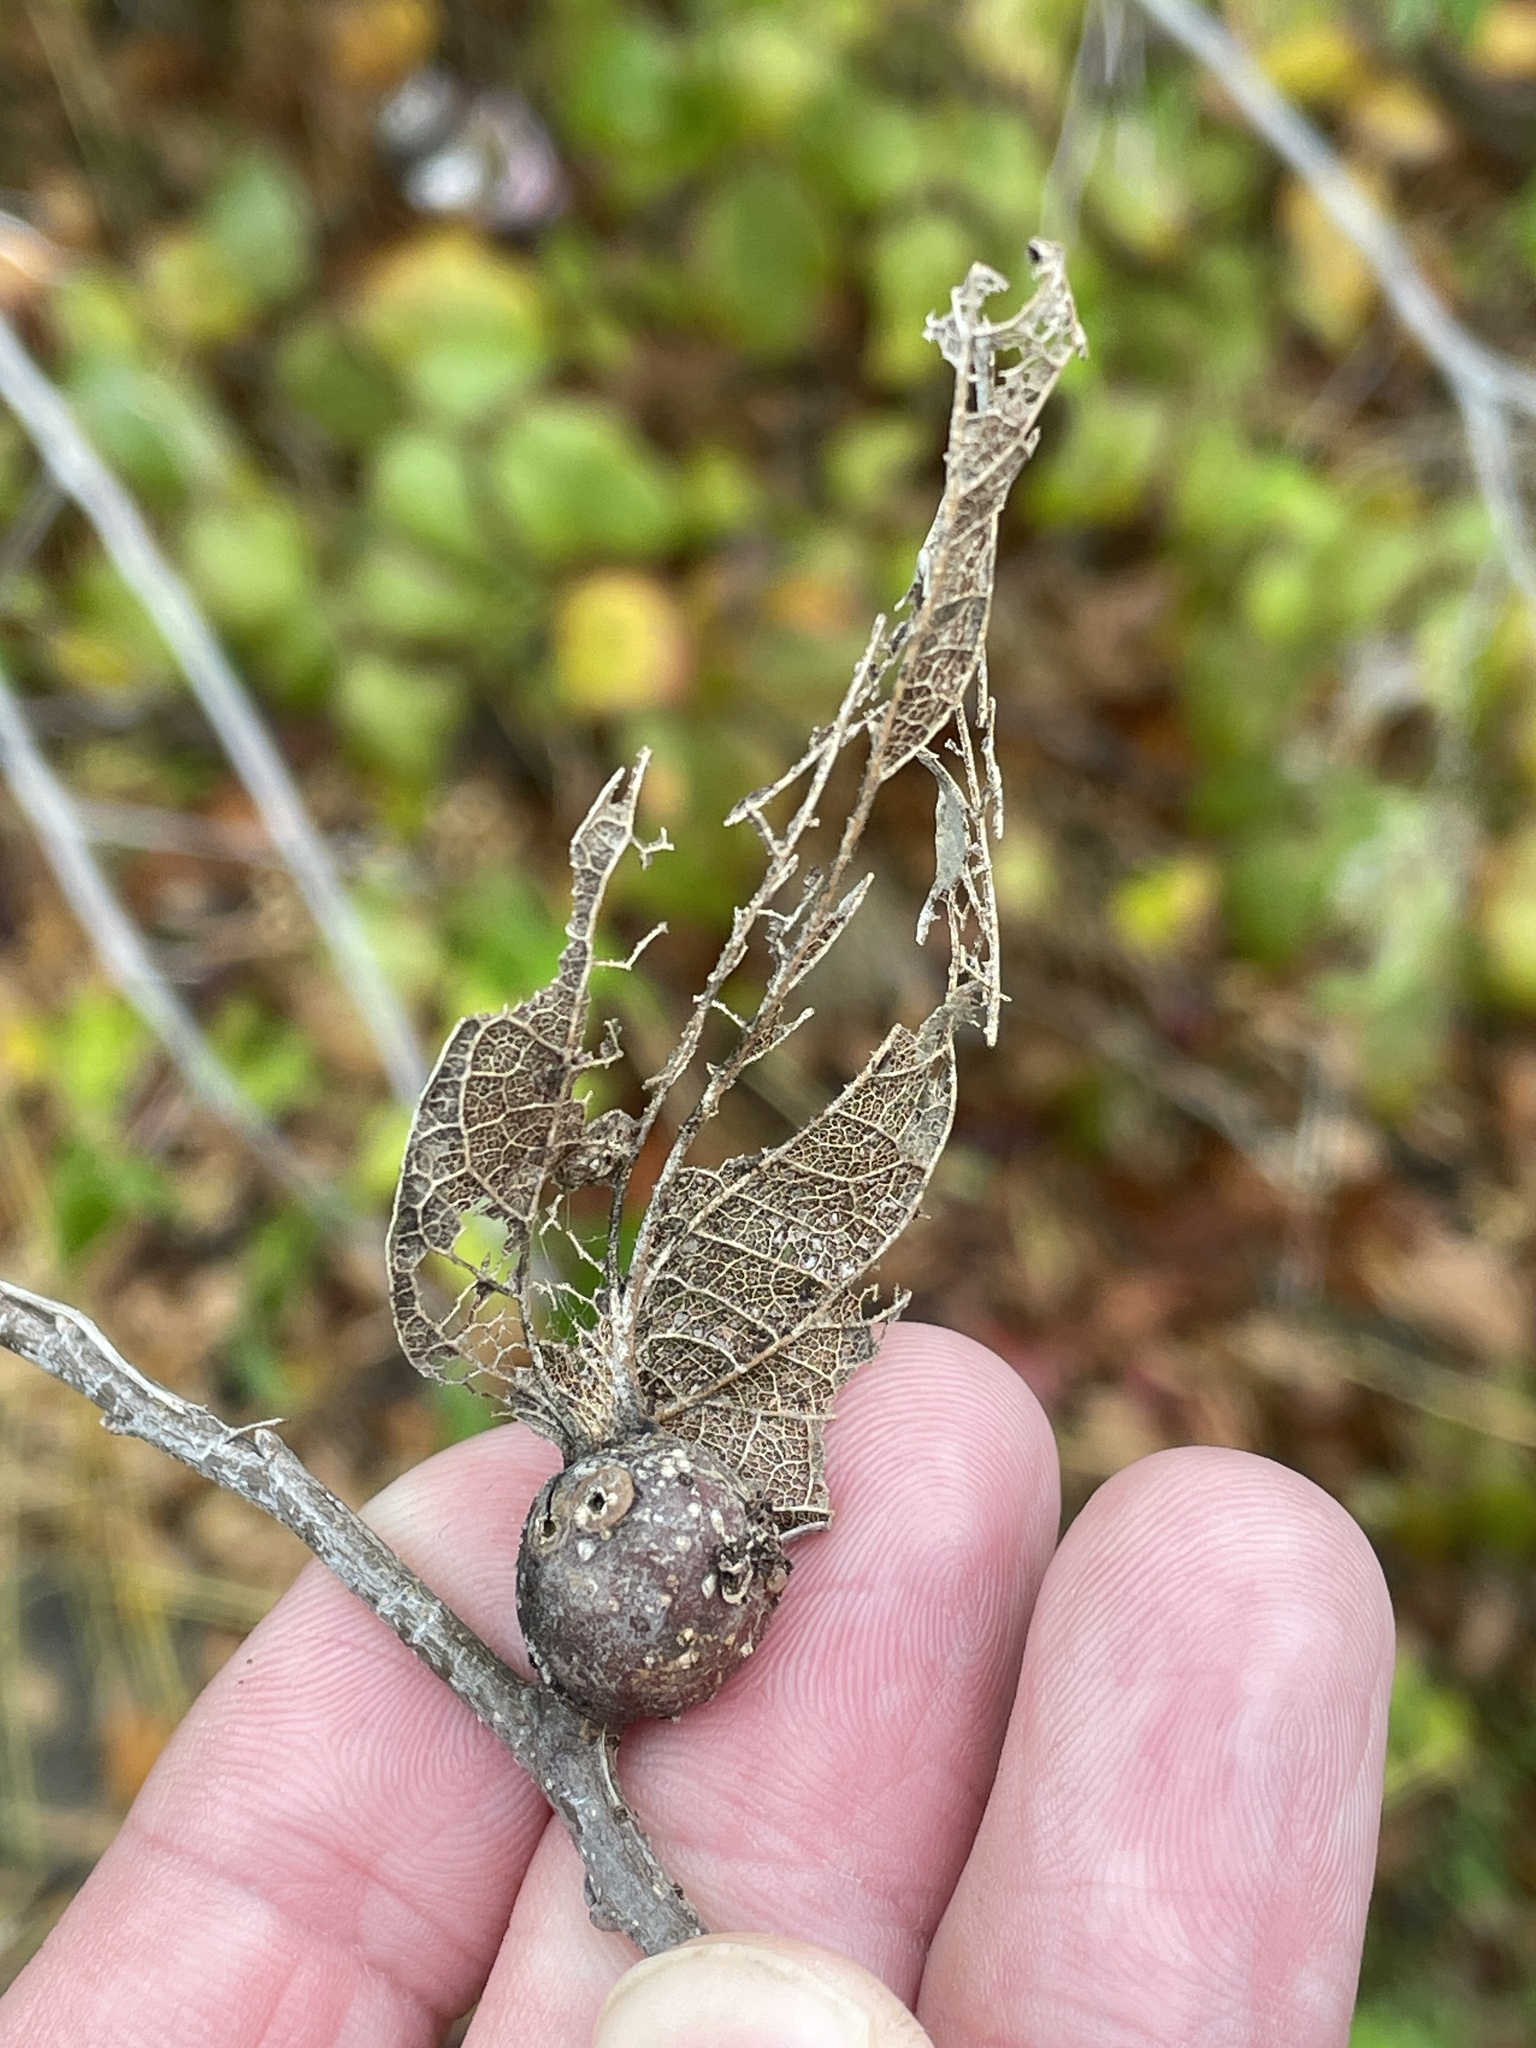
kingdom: Animalia
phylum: Arthropoda
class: Insecta
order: Hemiptera
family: Aphalaridae
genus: Pachypsylla
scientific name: Pachypsylla venusta
